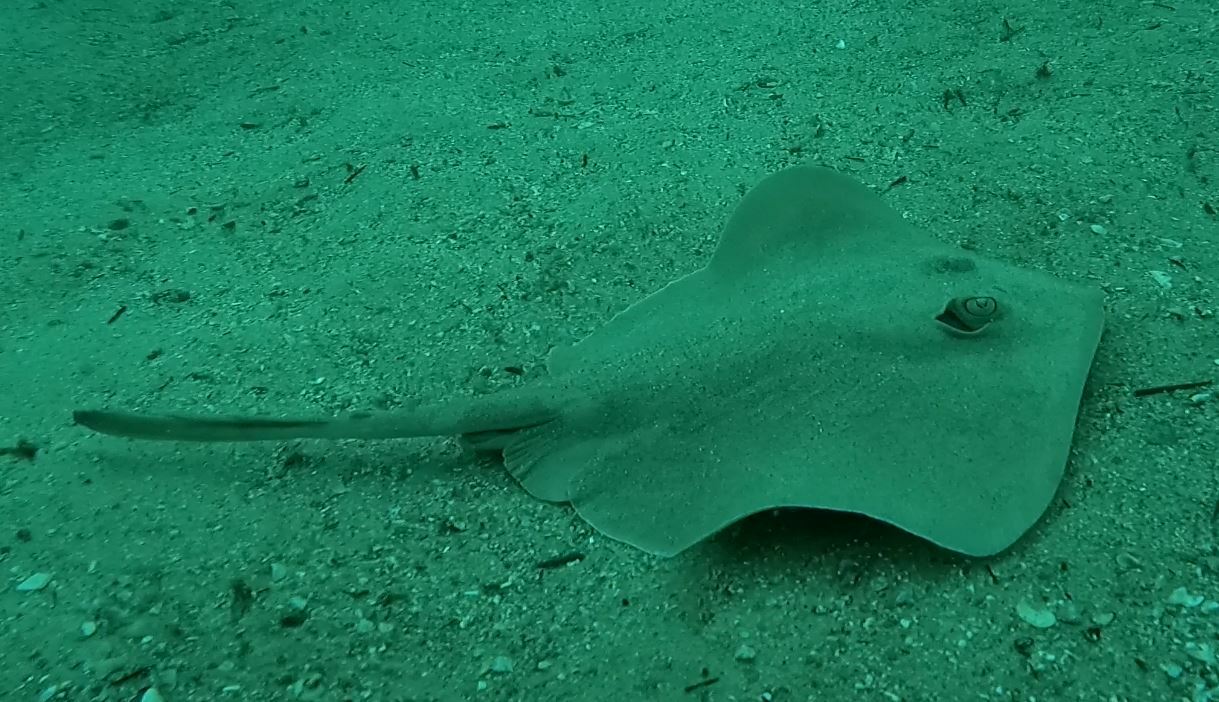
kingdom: Animalia
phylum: Chordata
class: Elasmobranchii
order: Myliobatiformes
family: Urolophidae
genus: Trygonoptera
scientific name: Trygonoptera testacea
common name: Common stingaree
